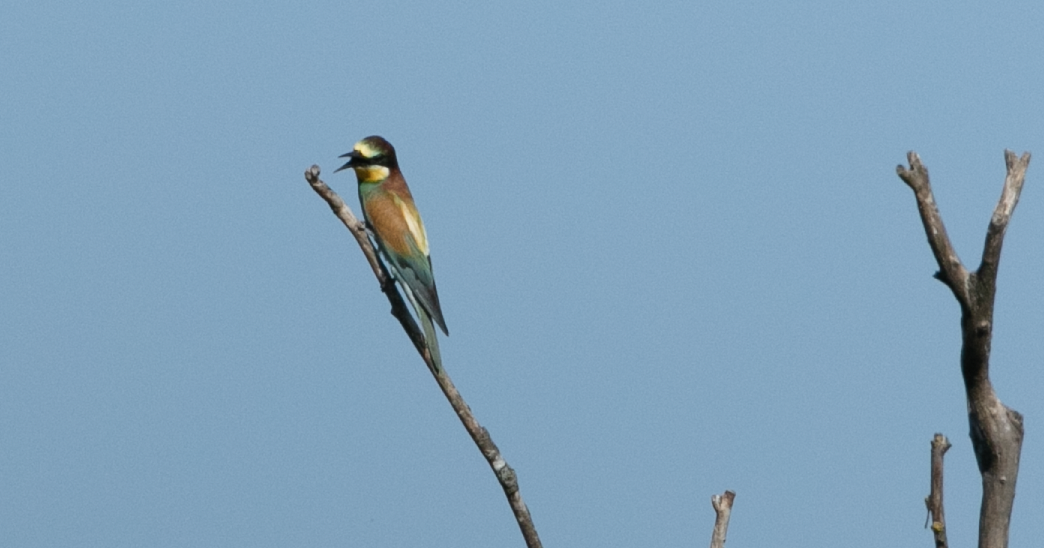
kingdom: Animalia
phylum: Chordata
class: Aves
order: Coraciiformes
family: Meropidae
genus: Merops
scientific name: Merops apiaster
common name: European bee-eater
